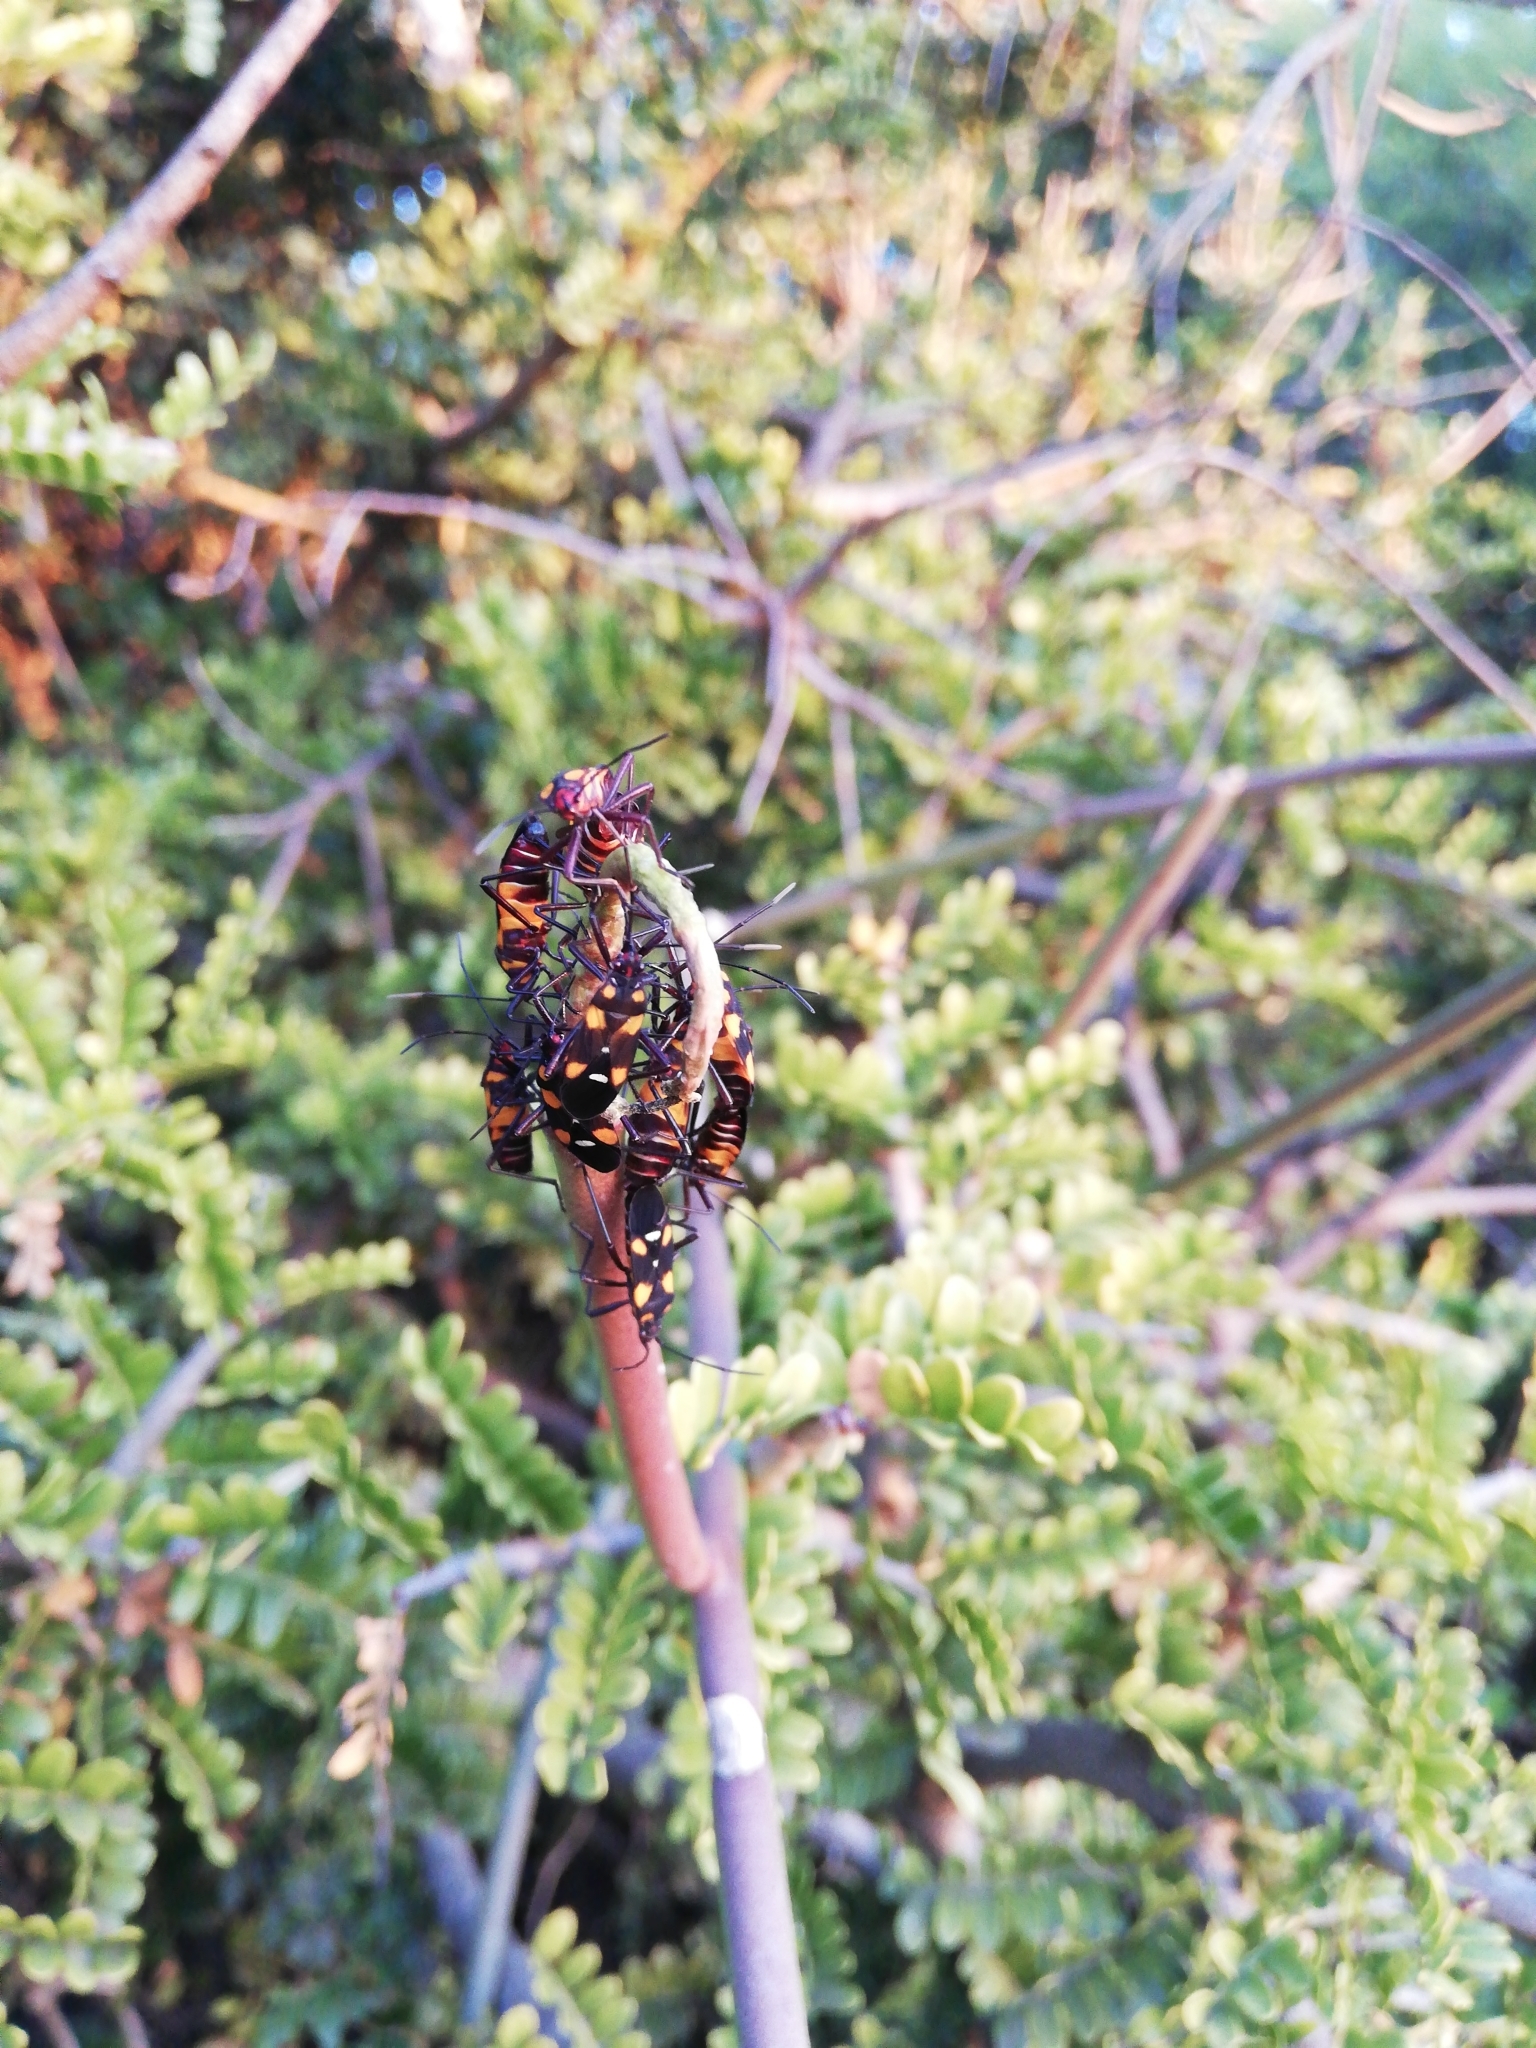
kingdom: Animalia
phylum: Arthropoda
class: Insecta
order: Hemiptera
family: Lygaeidae
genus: Oncopeltus
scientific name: Oncopeltus famelicus
